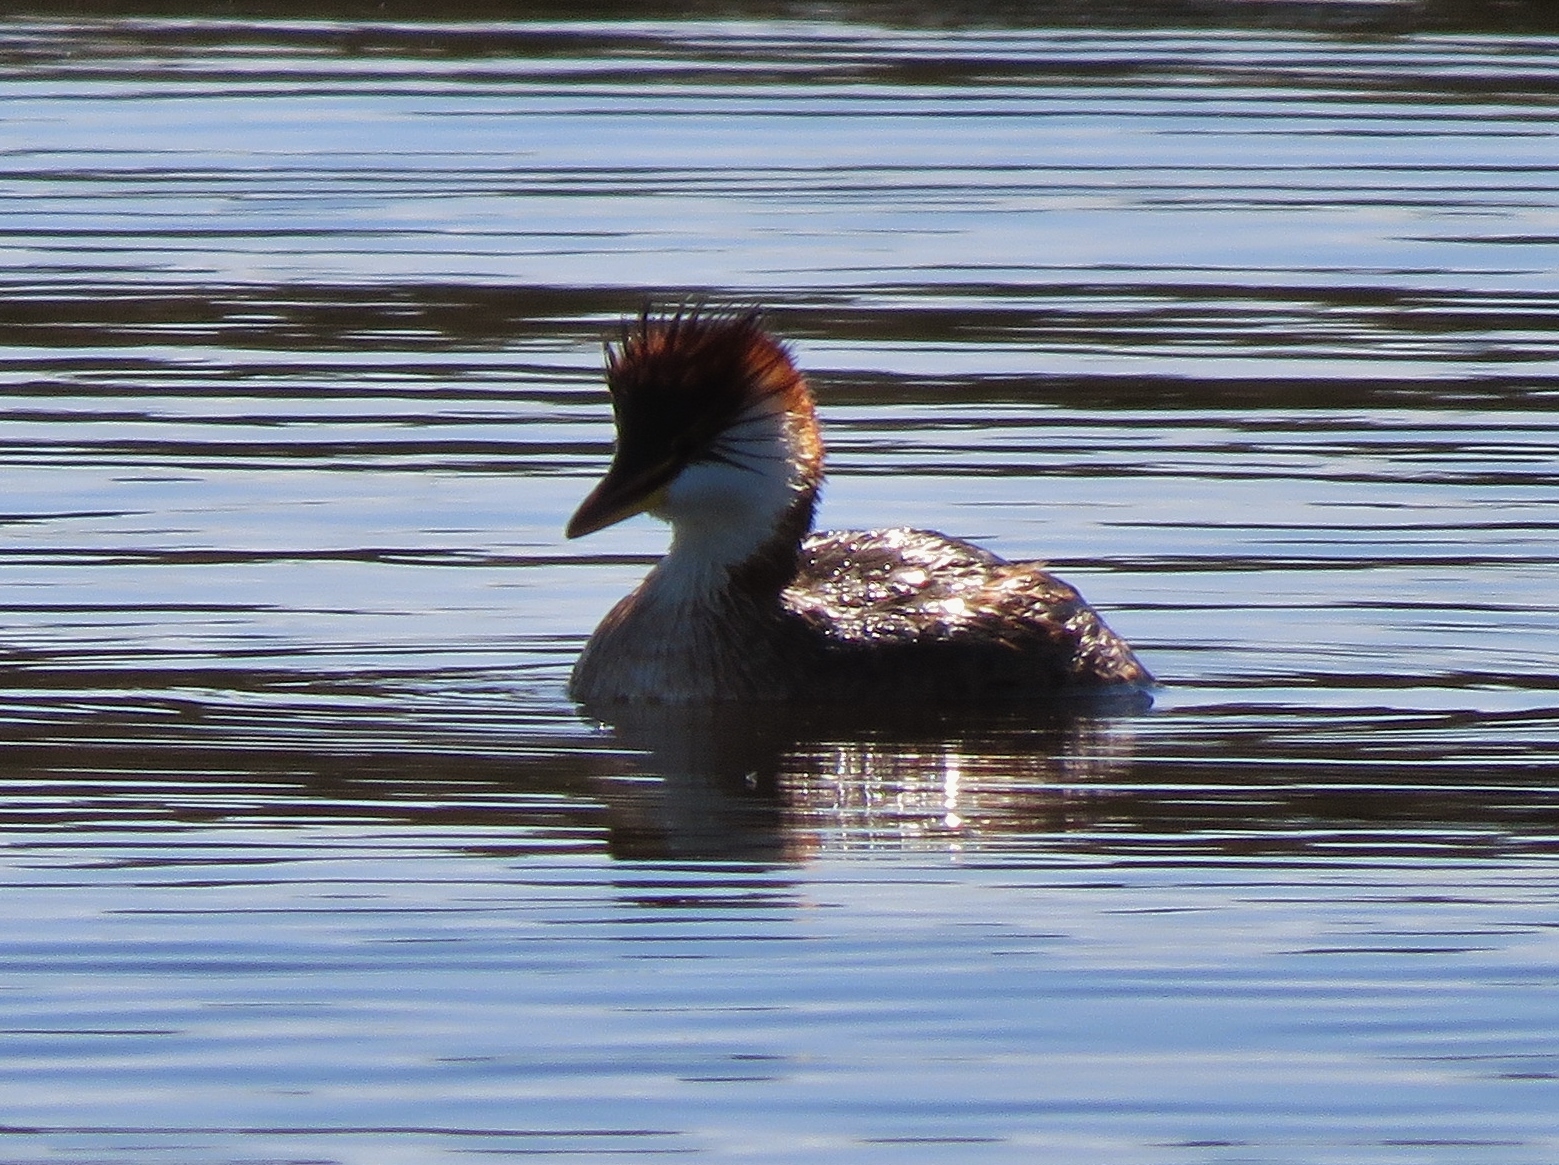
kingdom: Animalia
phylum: Chordata
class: Aves
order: Podicipediformes
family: Podicipedidae
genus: Rollandia
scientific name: Rollandia microptera
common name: Titicaca grebe
